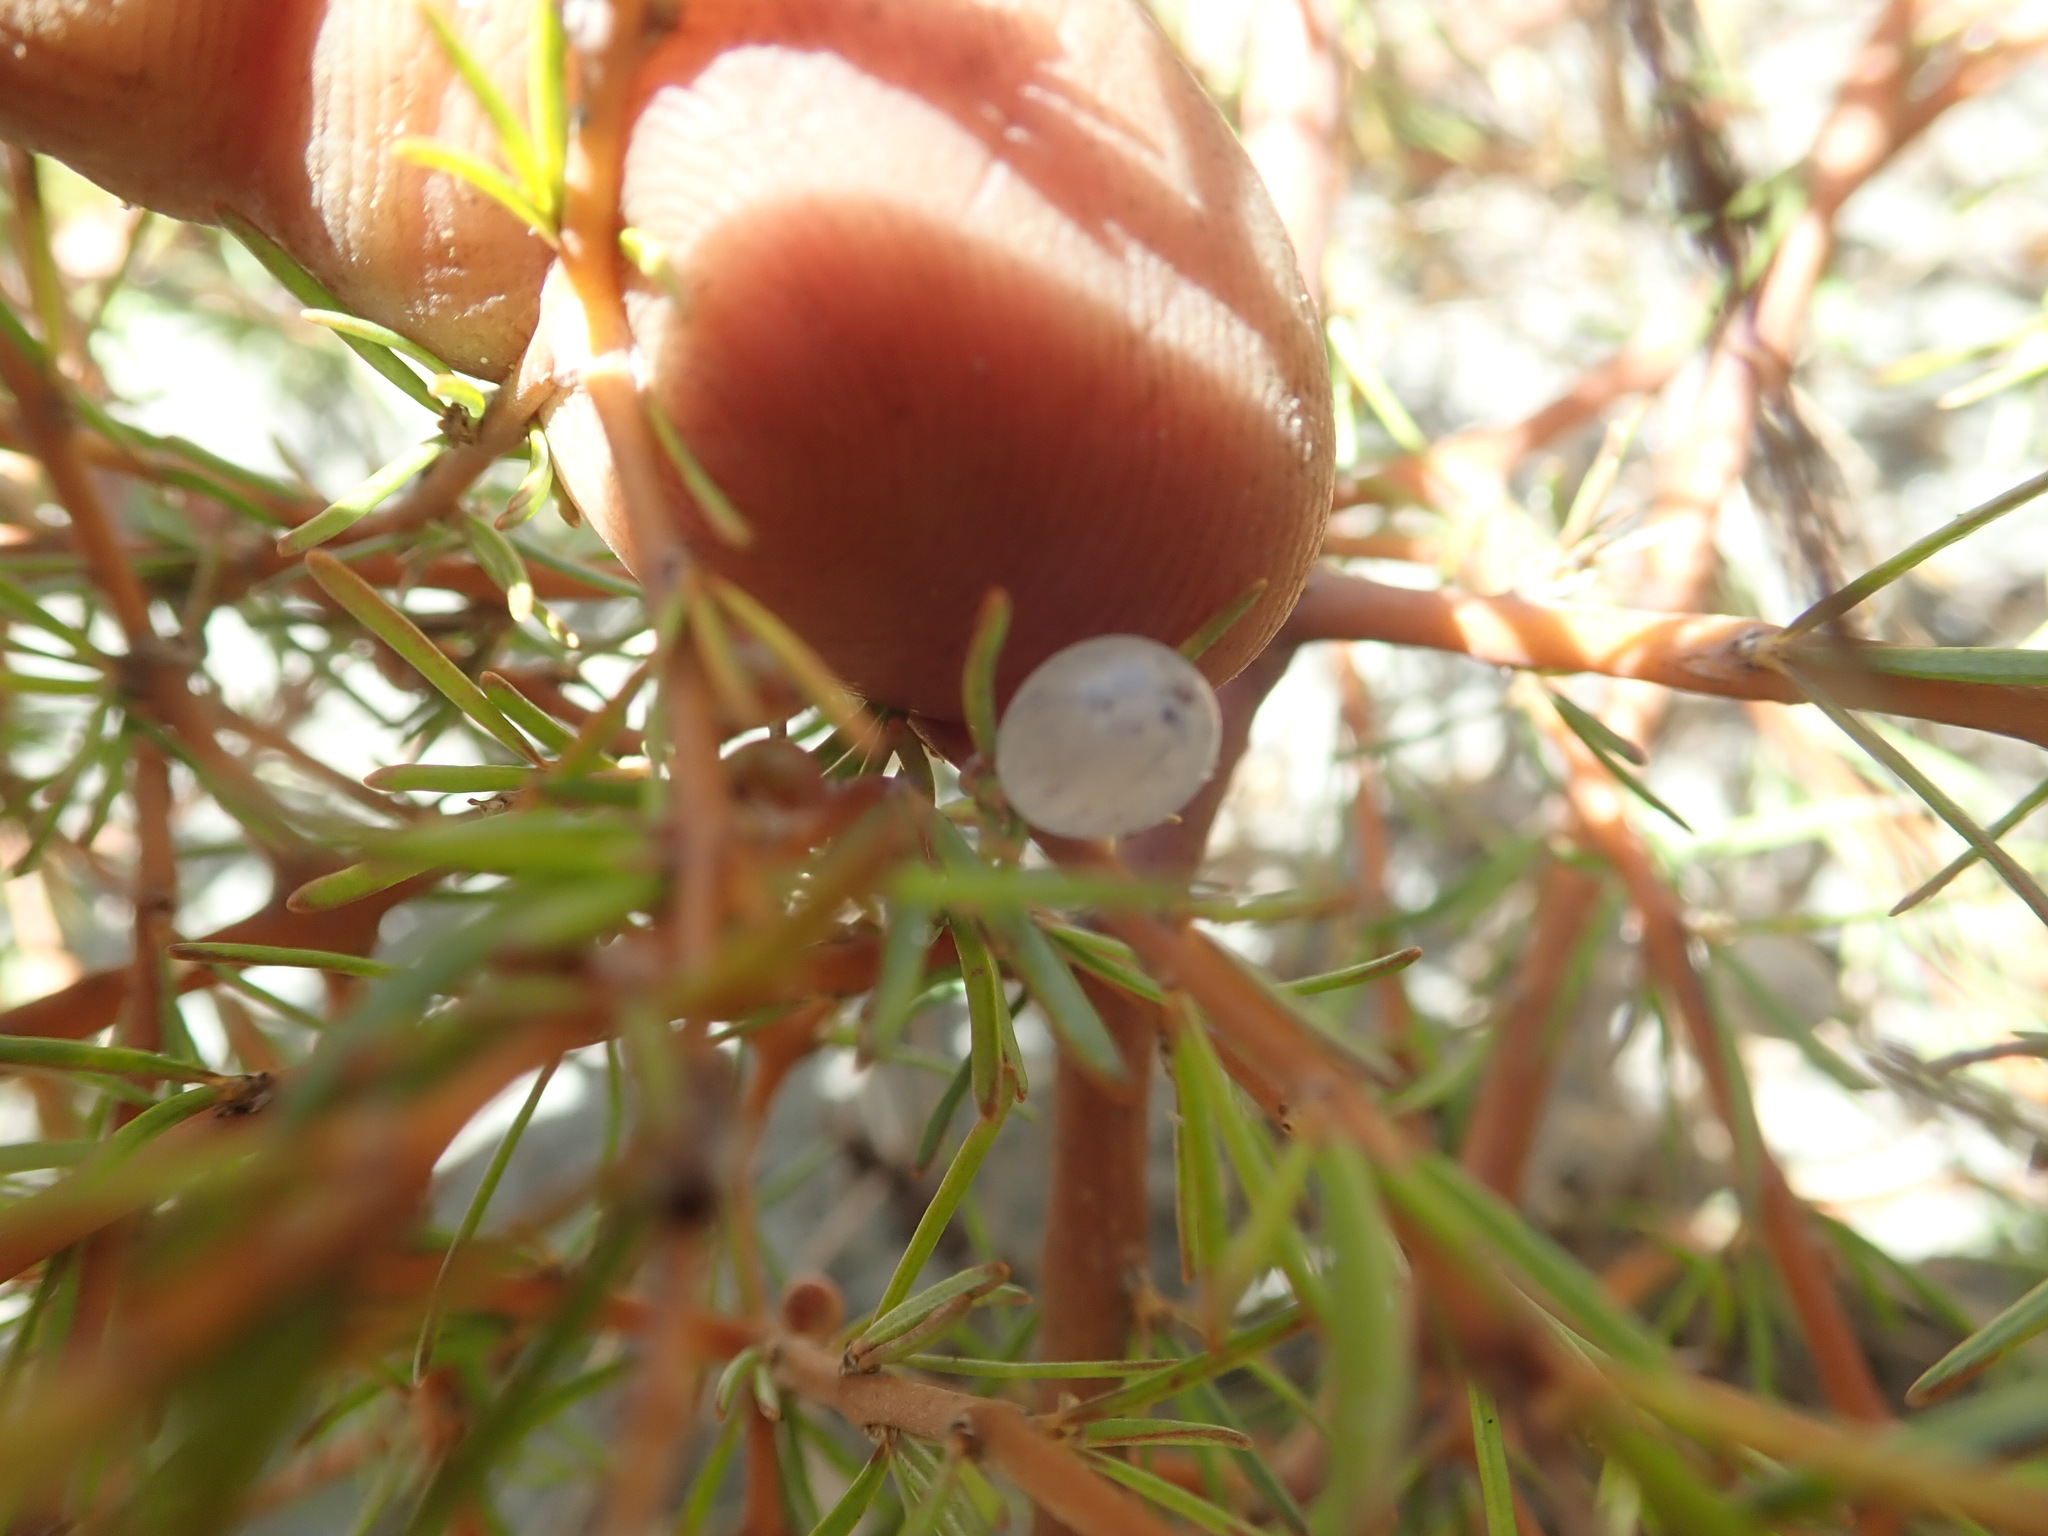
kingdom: Plantae
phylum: Tracheophyta
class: Magnoliopsida
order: Gentianales
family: Rubiaceae
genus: Coprosma
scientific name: Coprosma acerosa
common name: Sand coprosma
